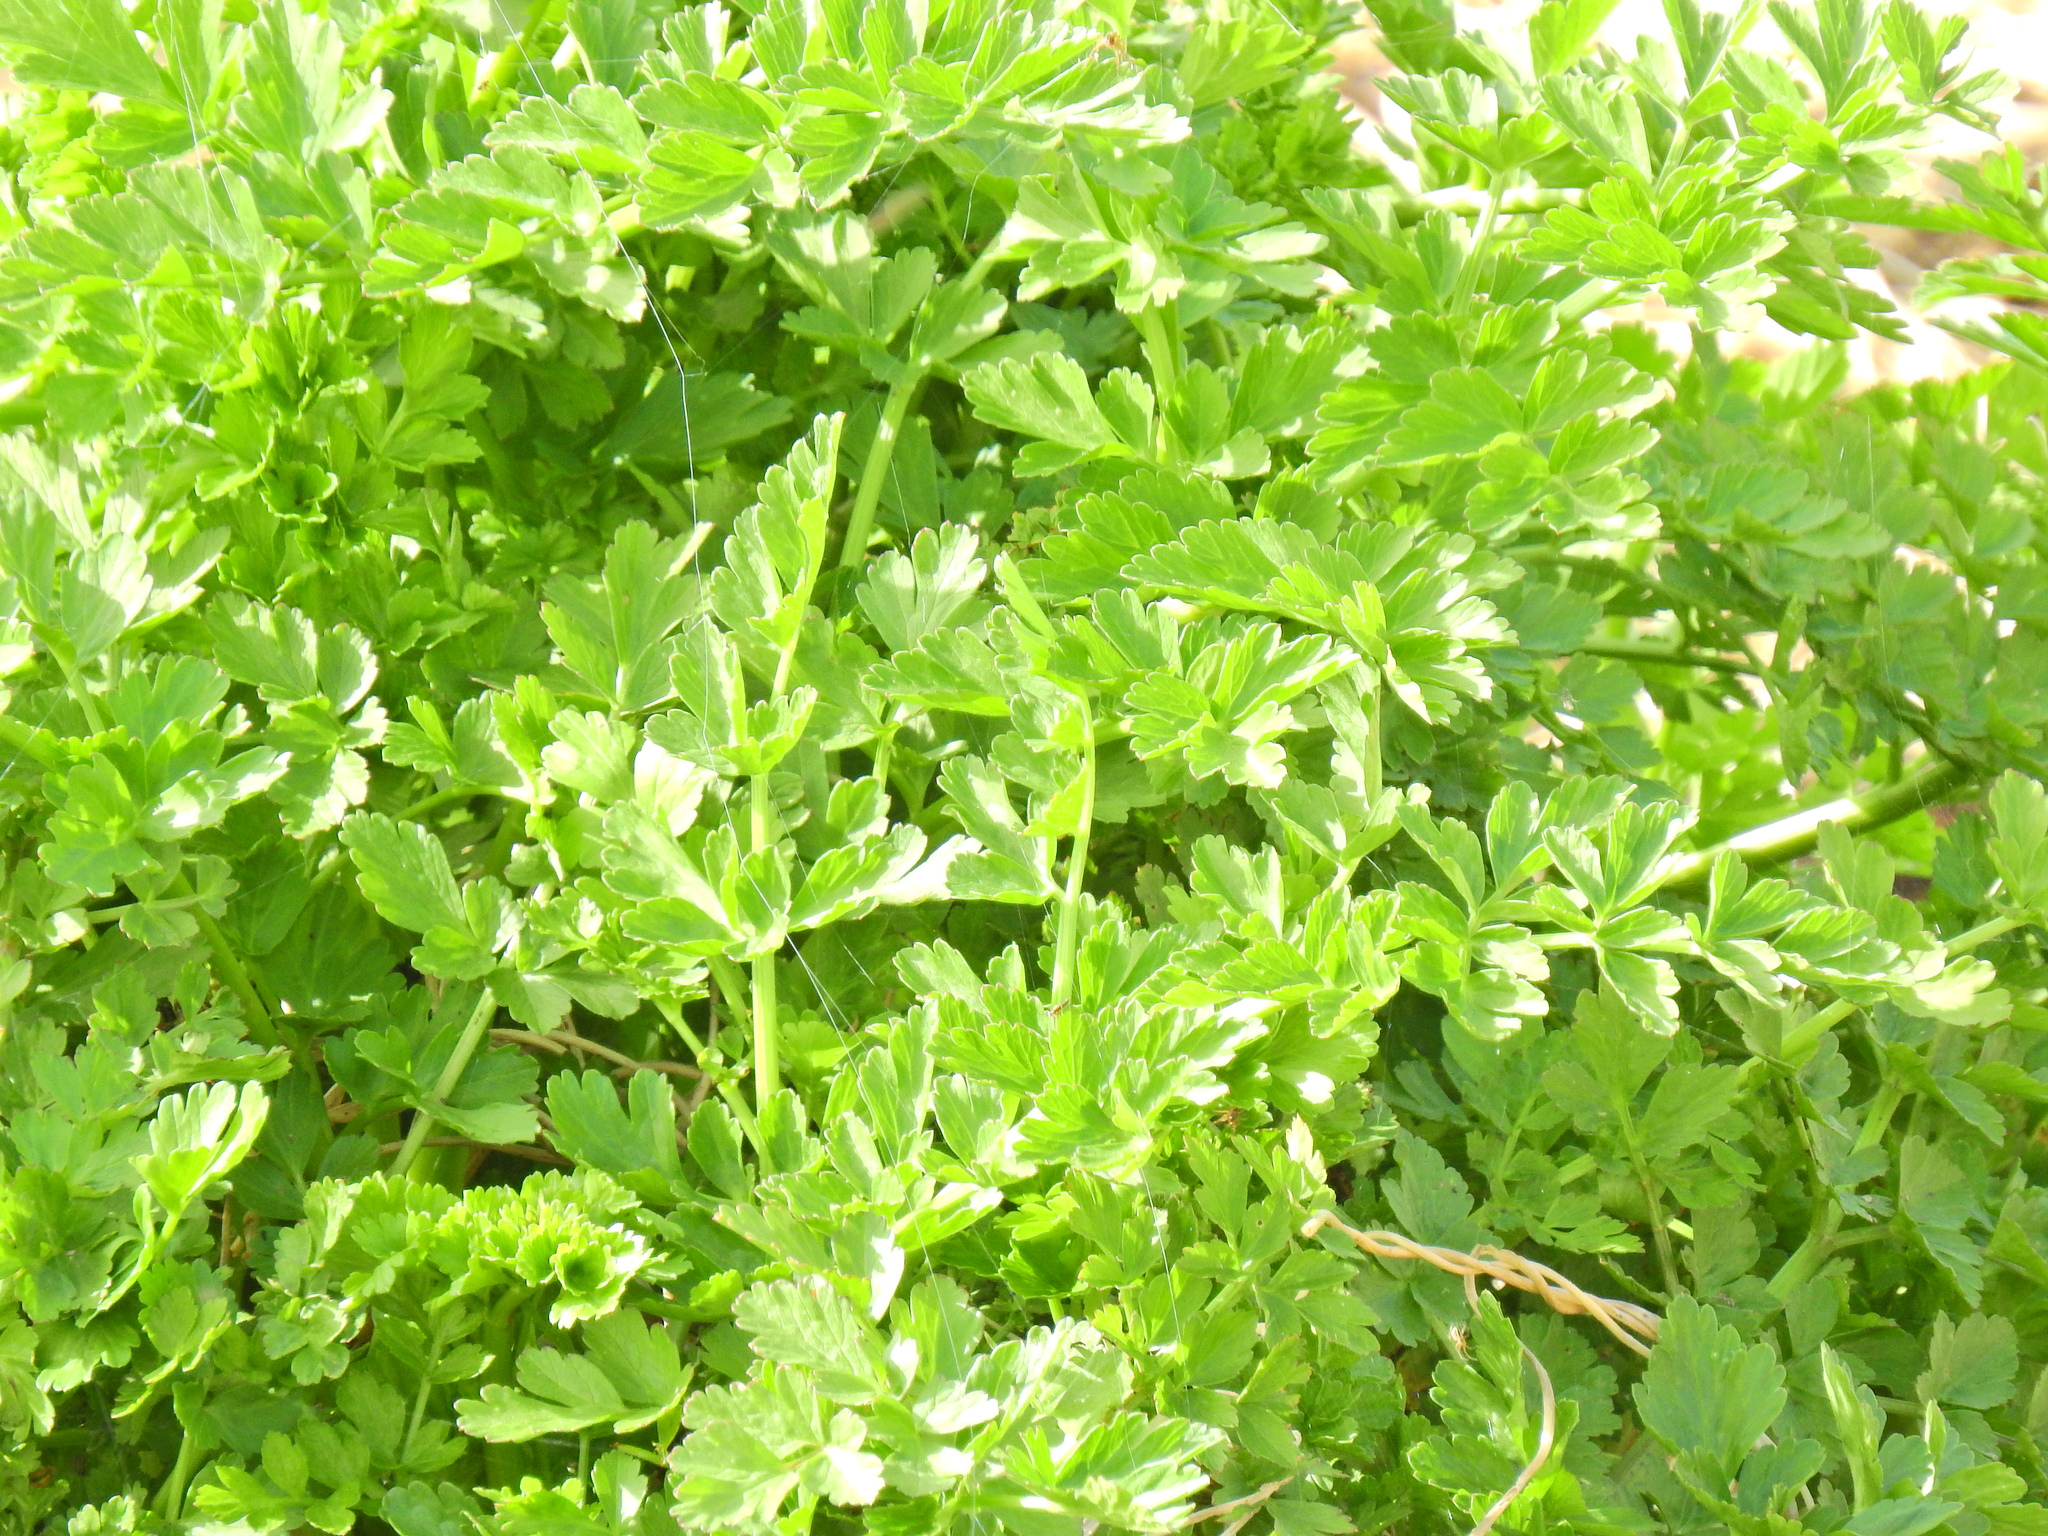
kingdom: Plantae
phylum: Tracheophyta
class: Magnoliopsida
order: Apiales
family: Apiaceae
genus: Oenanthe
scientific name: Oenanthe crocata
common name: Hemlock water-dropwort
